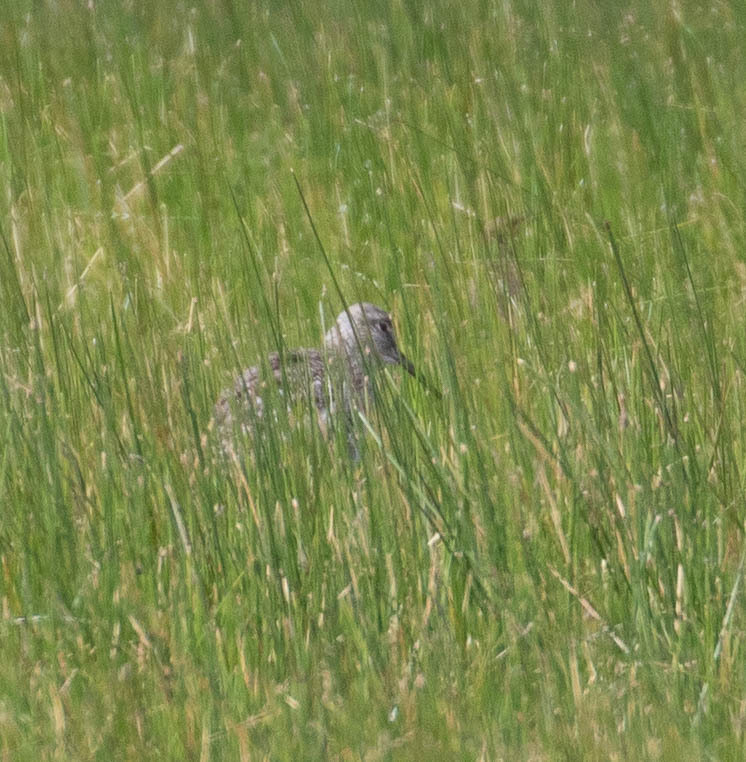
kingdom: Animalia
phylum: Chordata
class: Aves
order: Charadriiformes
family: Scolopacidae
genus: Tringa
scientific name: Tringa semipalmata
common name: Willet
